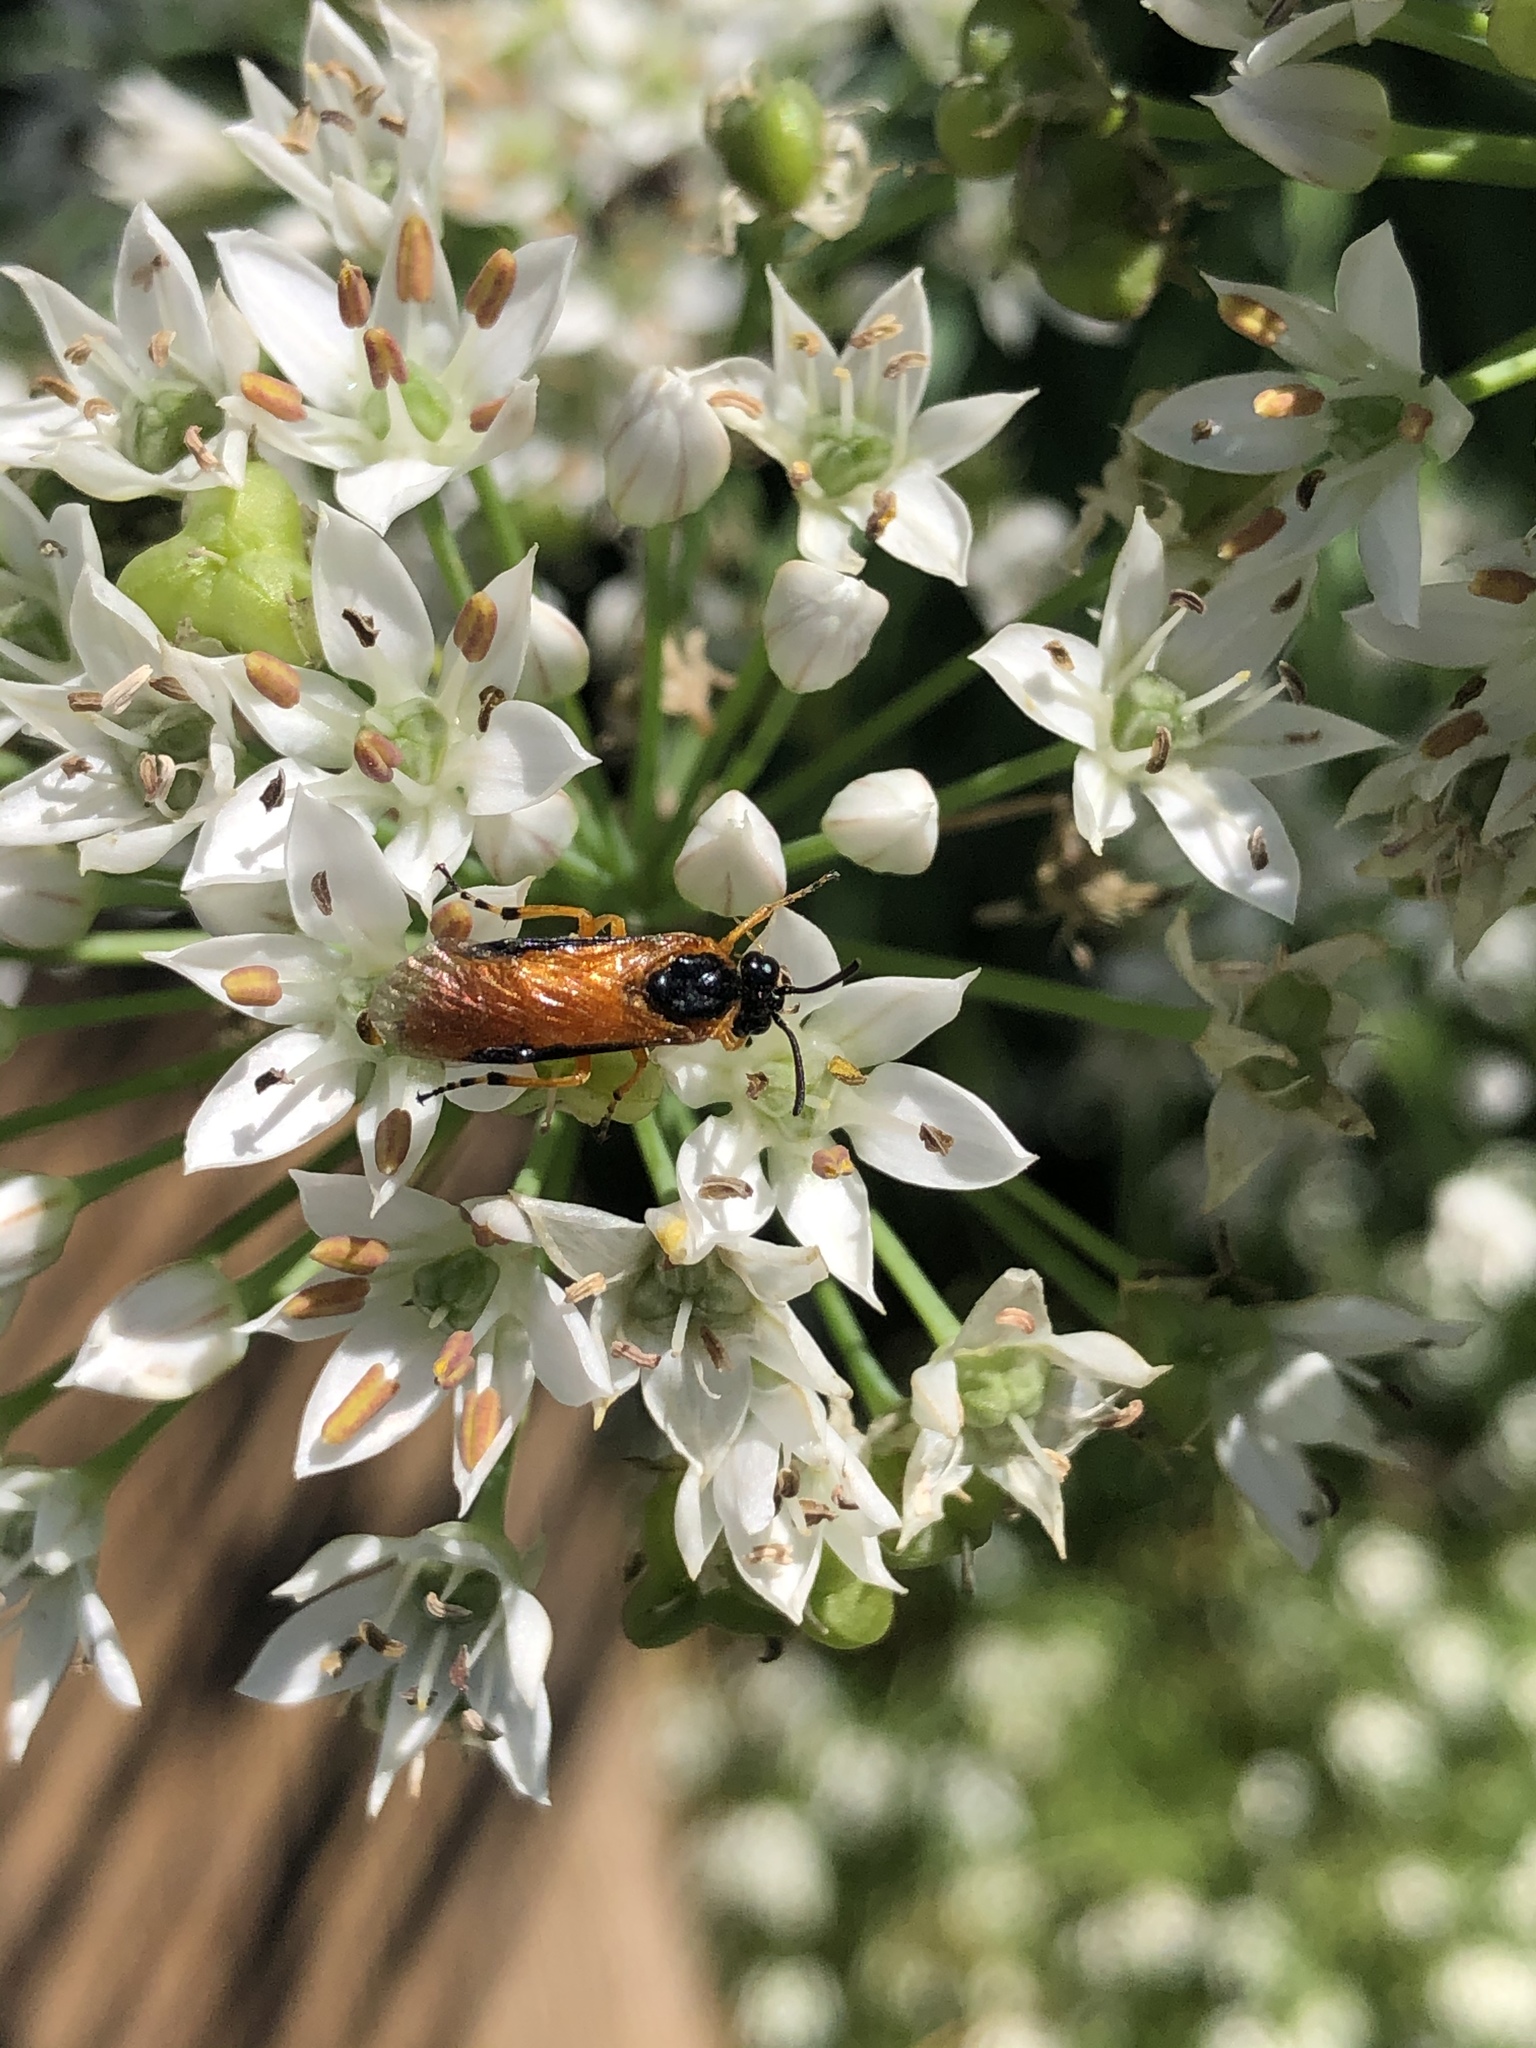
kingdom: Animalia
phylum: Arthropoda
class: Insecta
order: Hymenoptera
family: Argidae
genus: Arge
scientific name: Arge ochropus
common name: Argid sawfly
